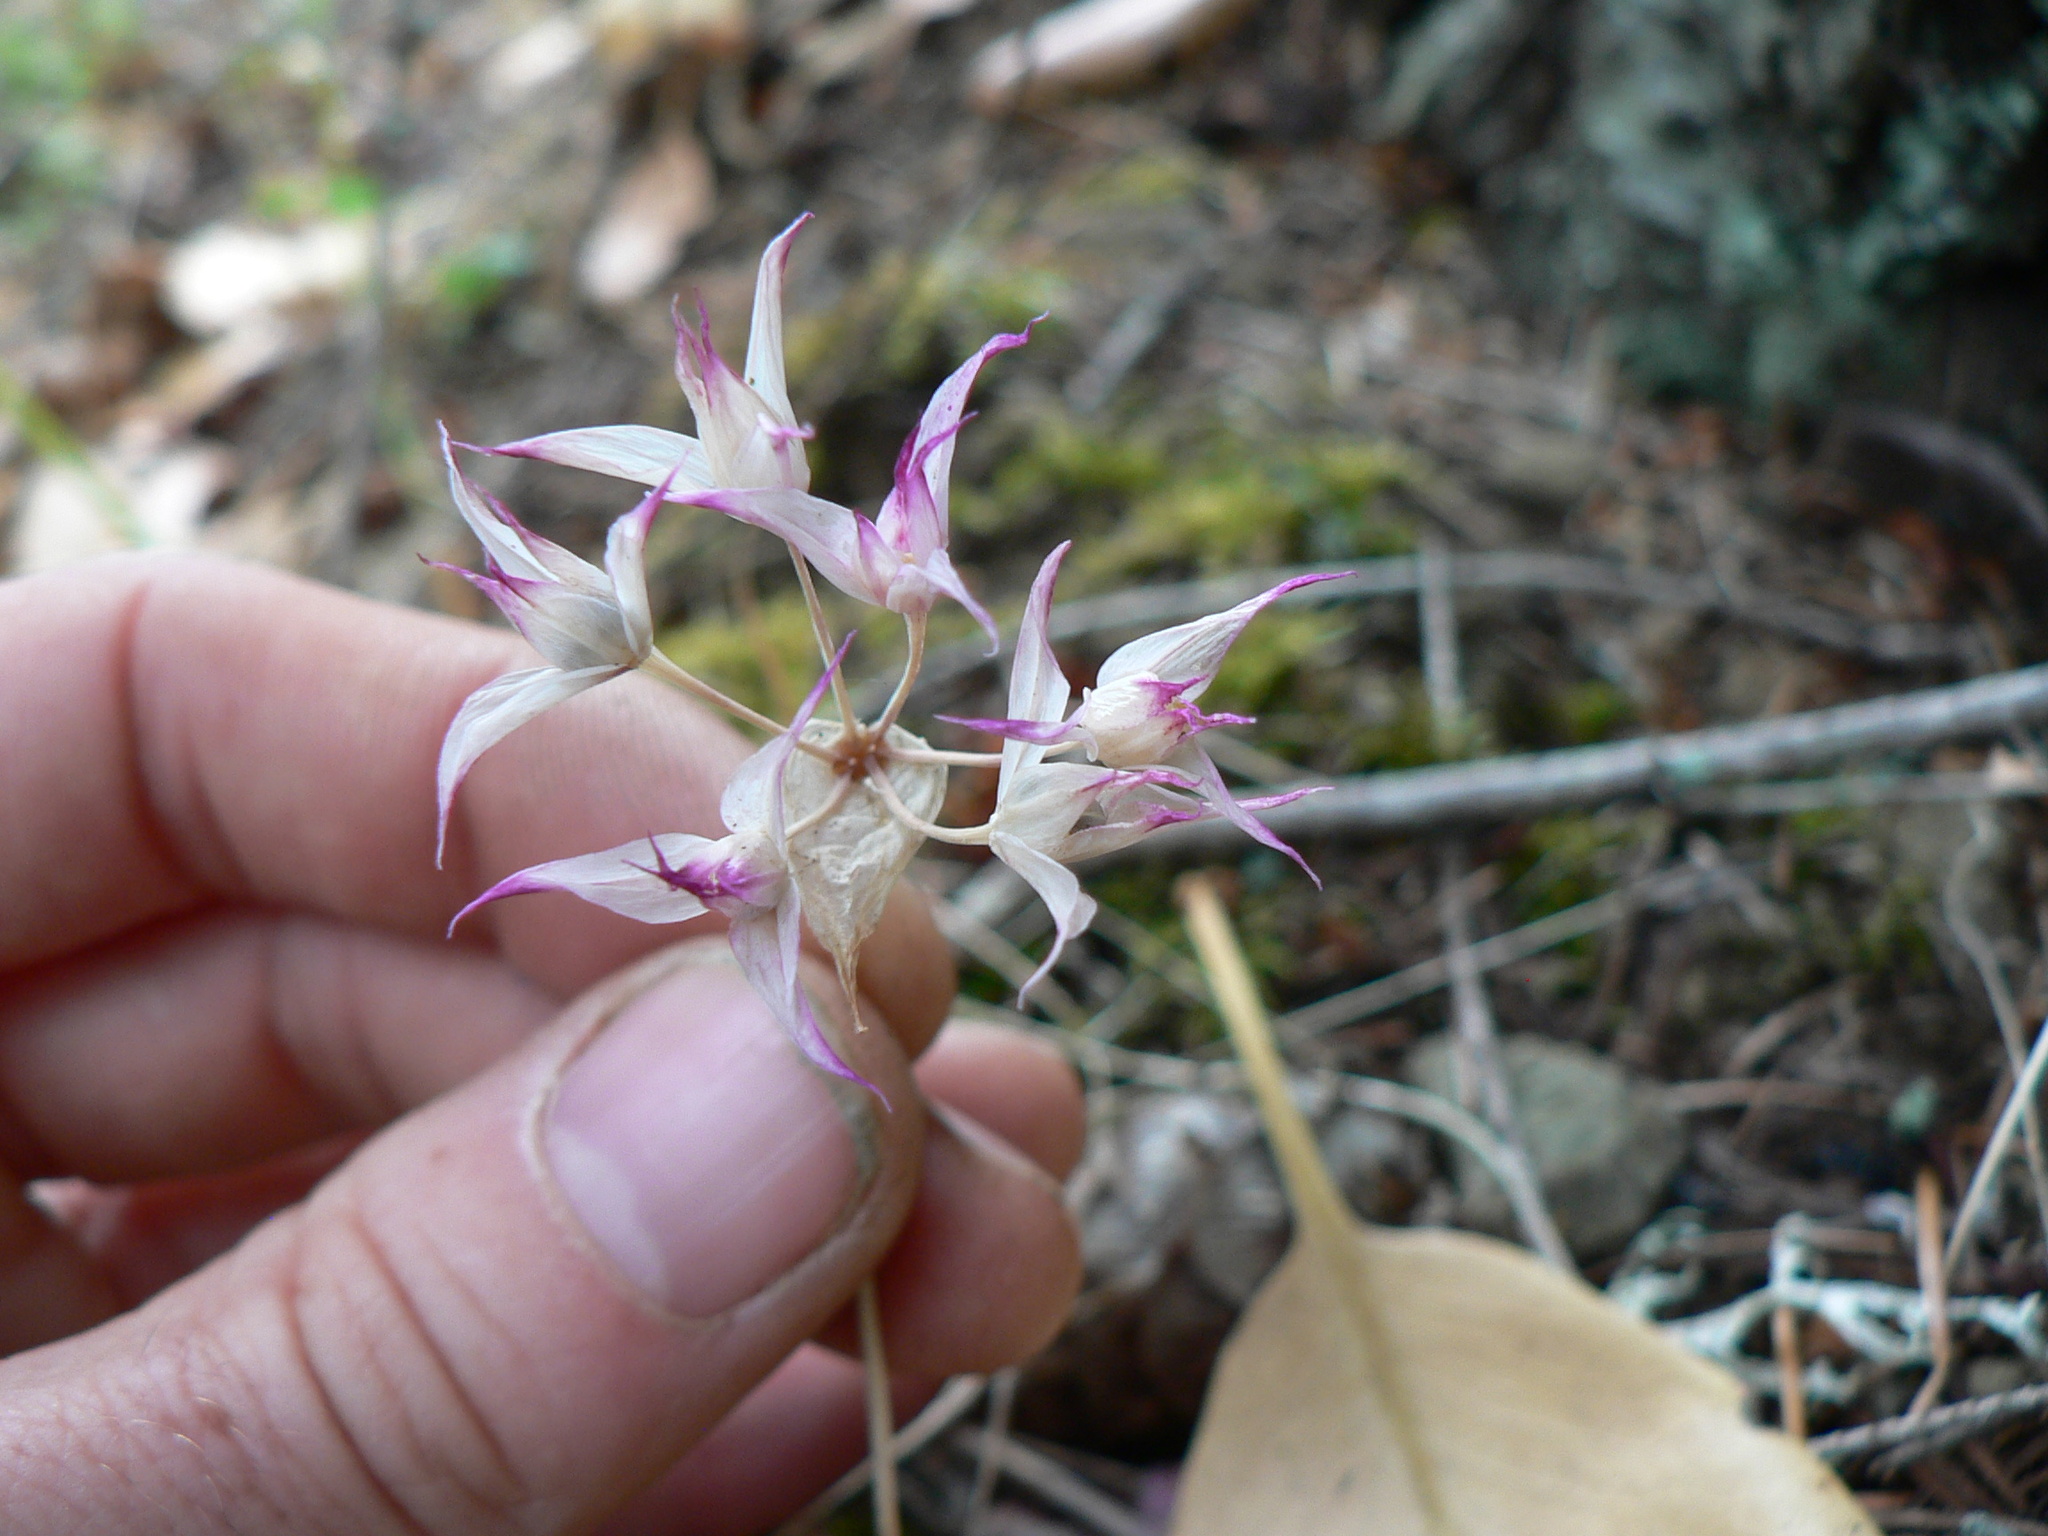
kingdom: Plantae
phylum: Tracheophyta
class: Liliopsida
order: Asparagales
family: Amaryllidaceae
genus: Allium
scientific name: Allium acuminatum
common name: Hooker's onion
